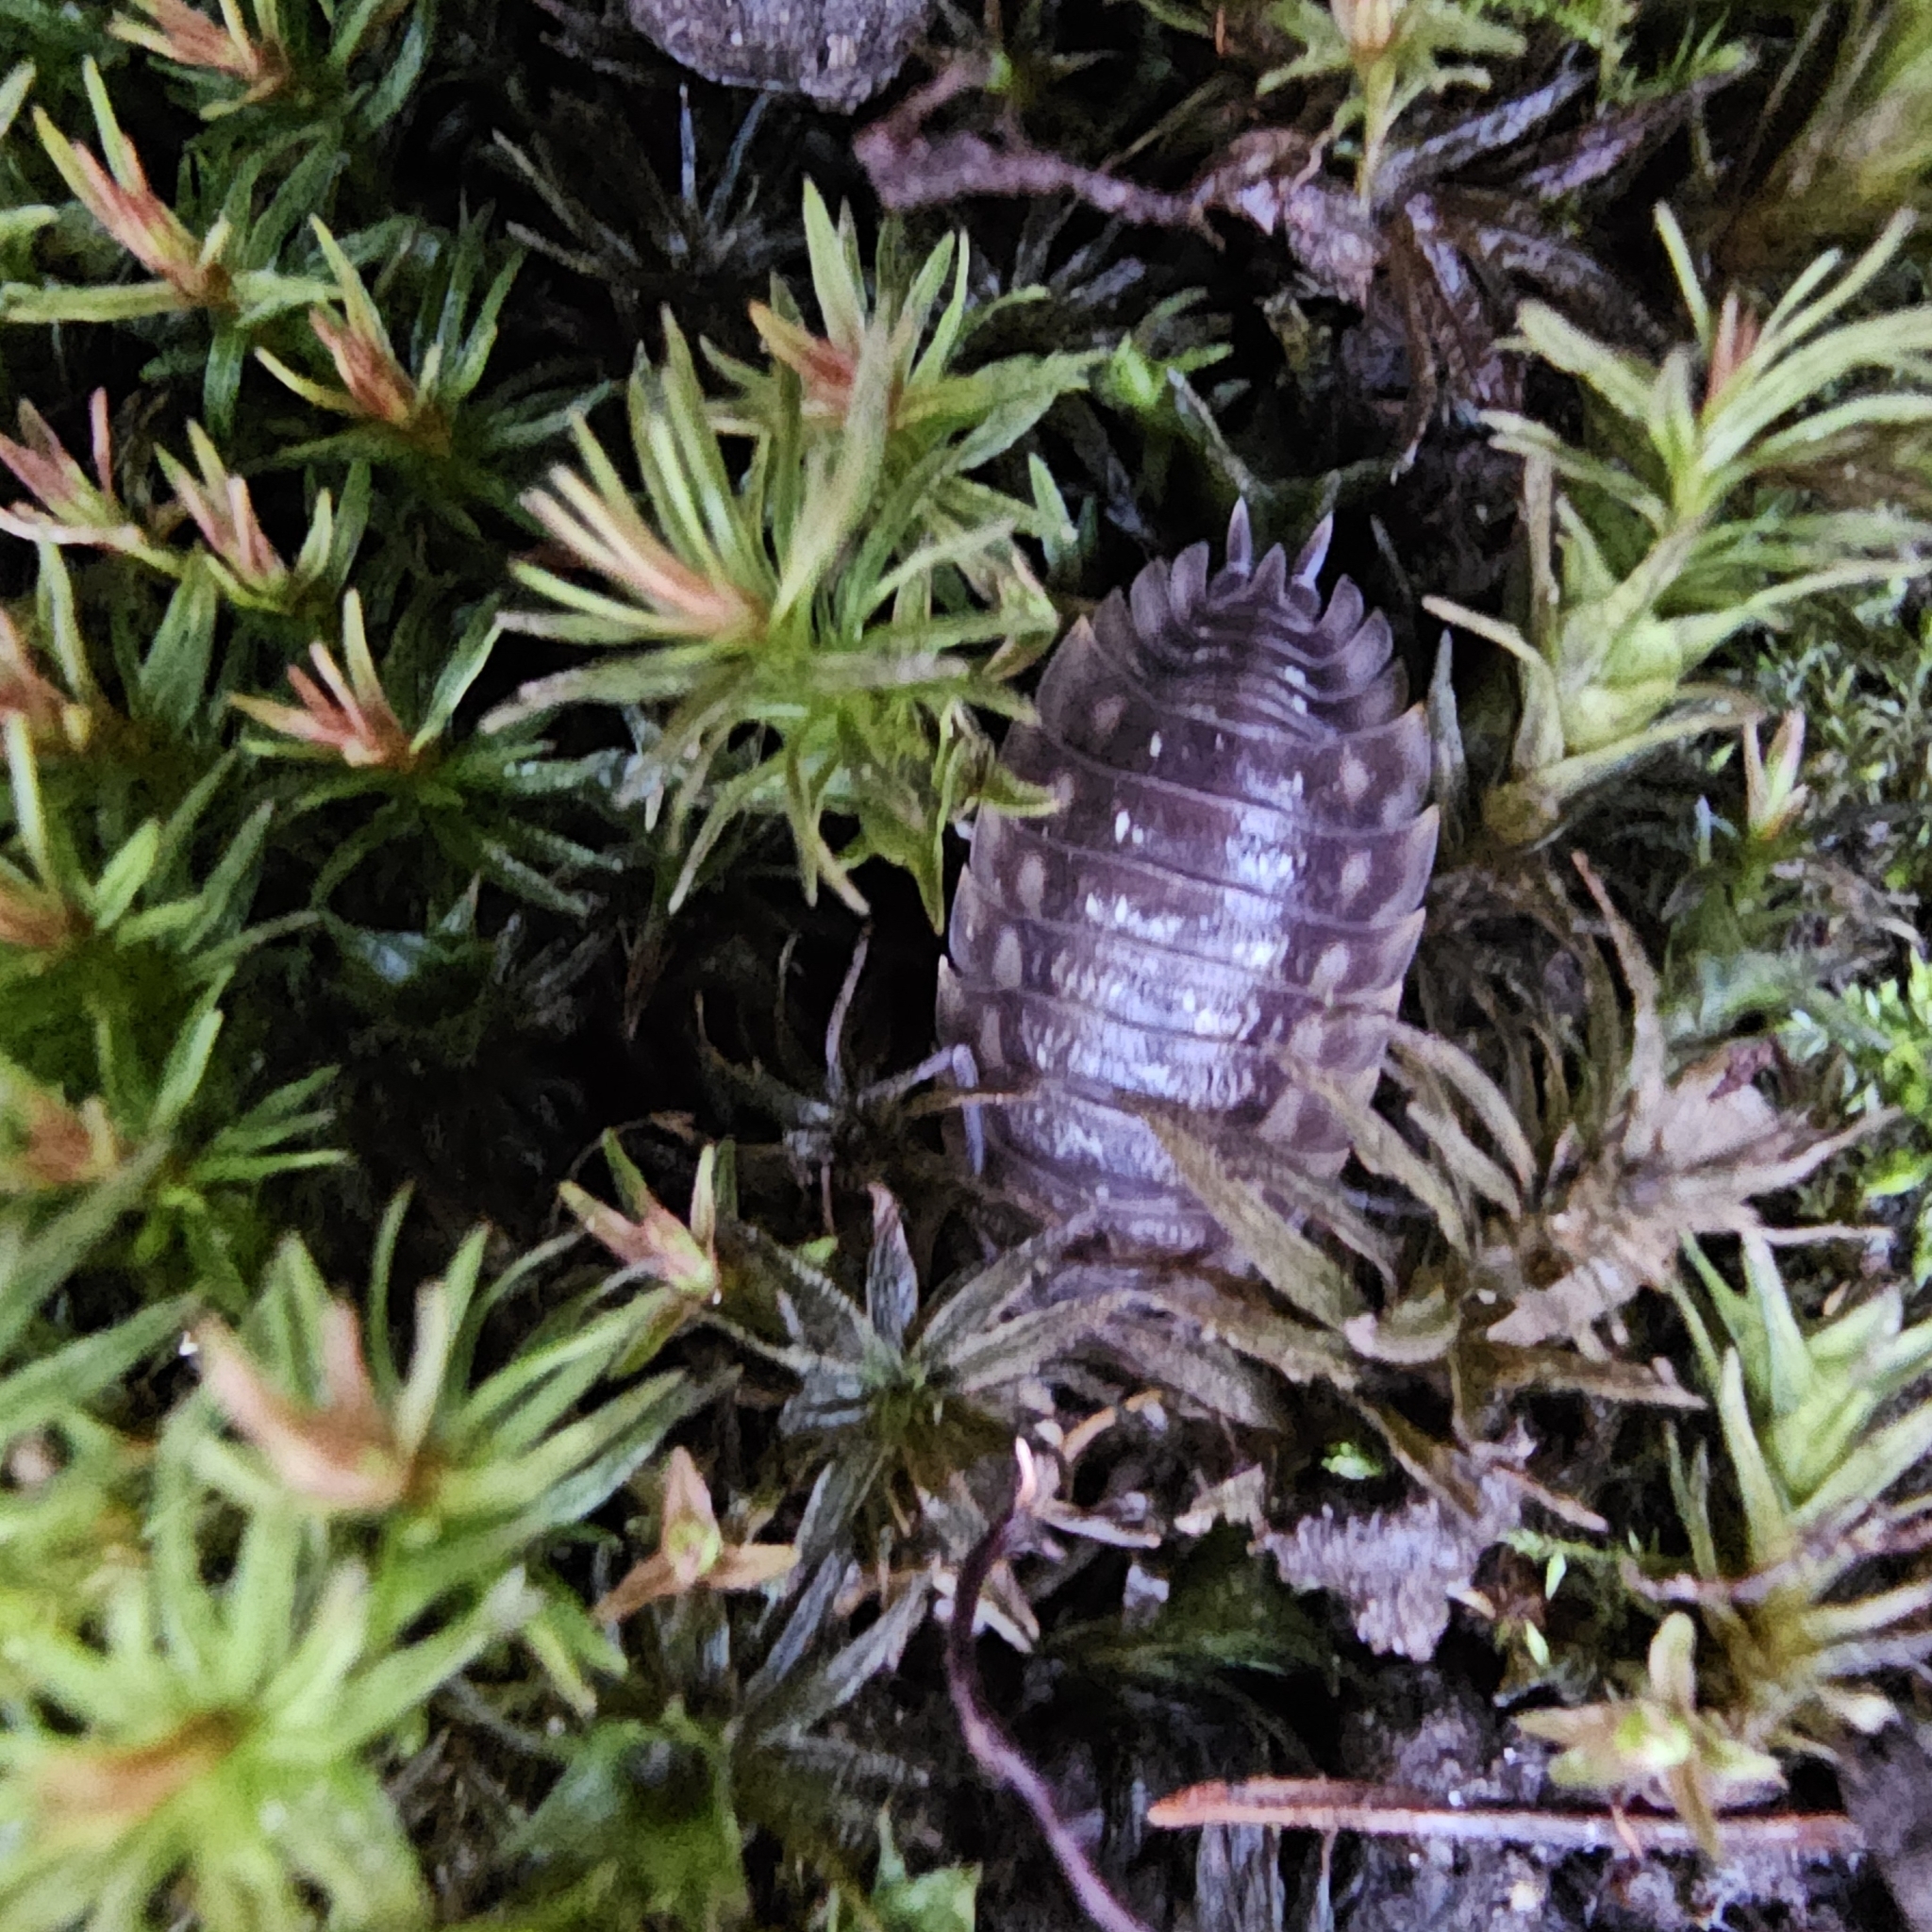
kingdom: Animalia
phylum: Arthropoda
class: Malacostraca
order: Isopoda
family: Oniscidae
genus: Oniscus
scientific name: Oniscus asellus
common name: Common shiny woodlouse
